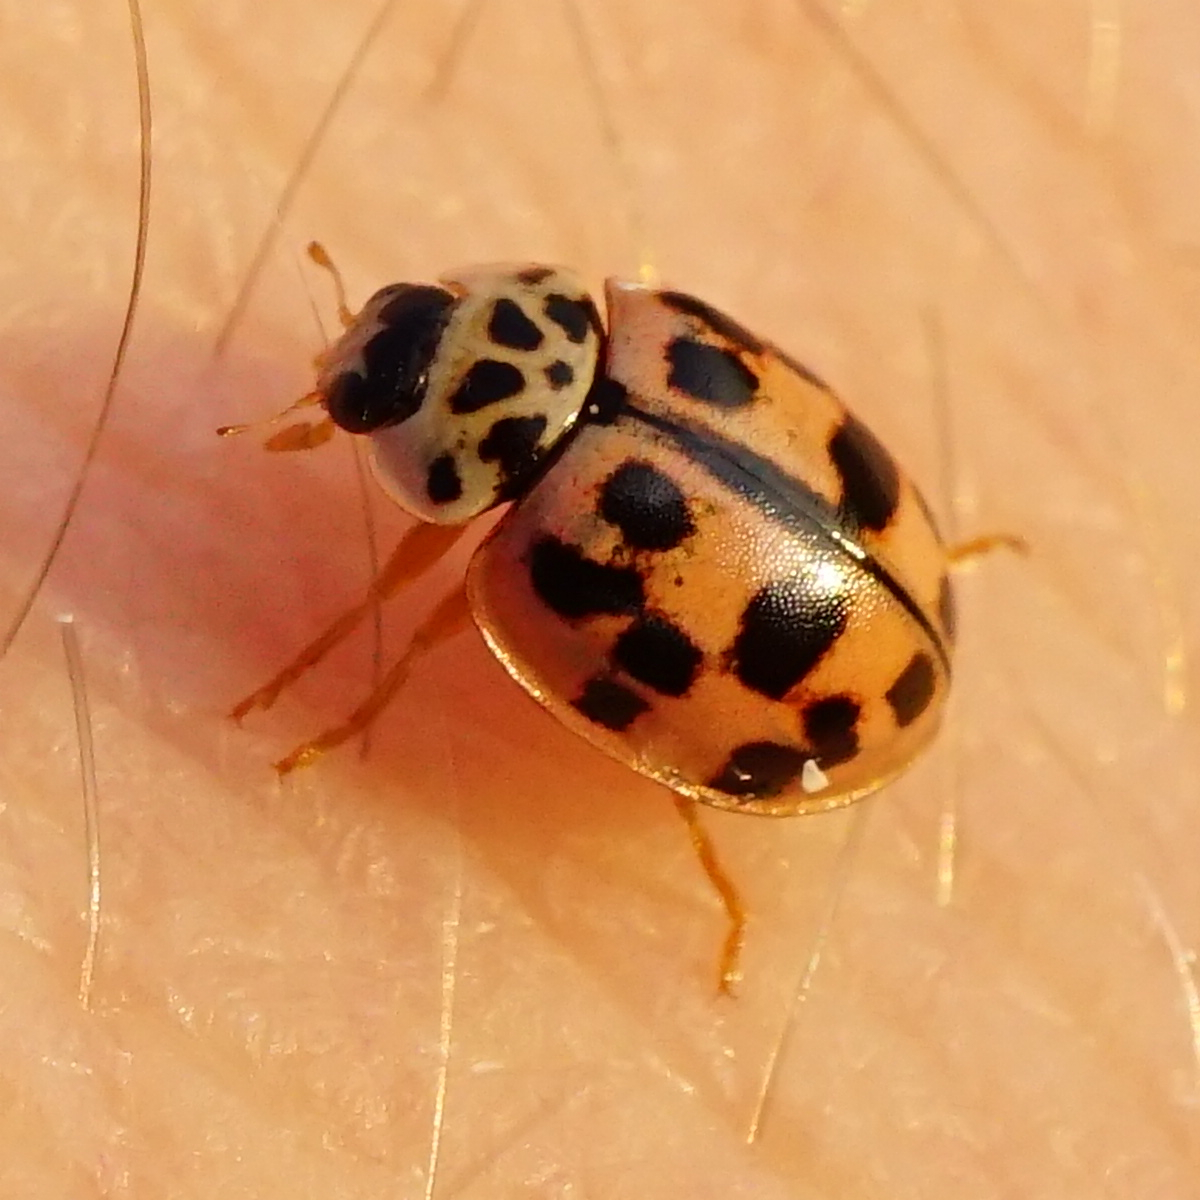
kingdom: Animalia
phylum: Arthropoda
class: Insecta
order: Coleoptera
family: Coccinellidae
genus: Oenopia
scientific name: Oenopia conglobata
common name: Ladybird beetle
